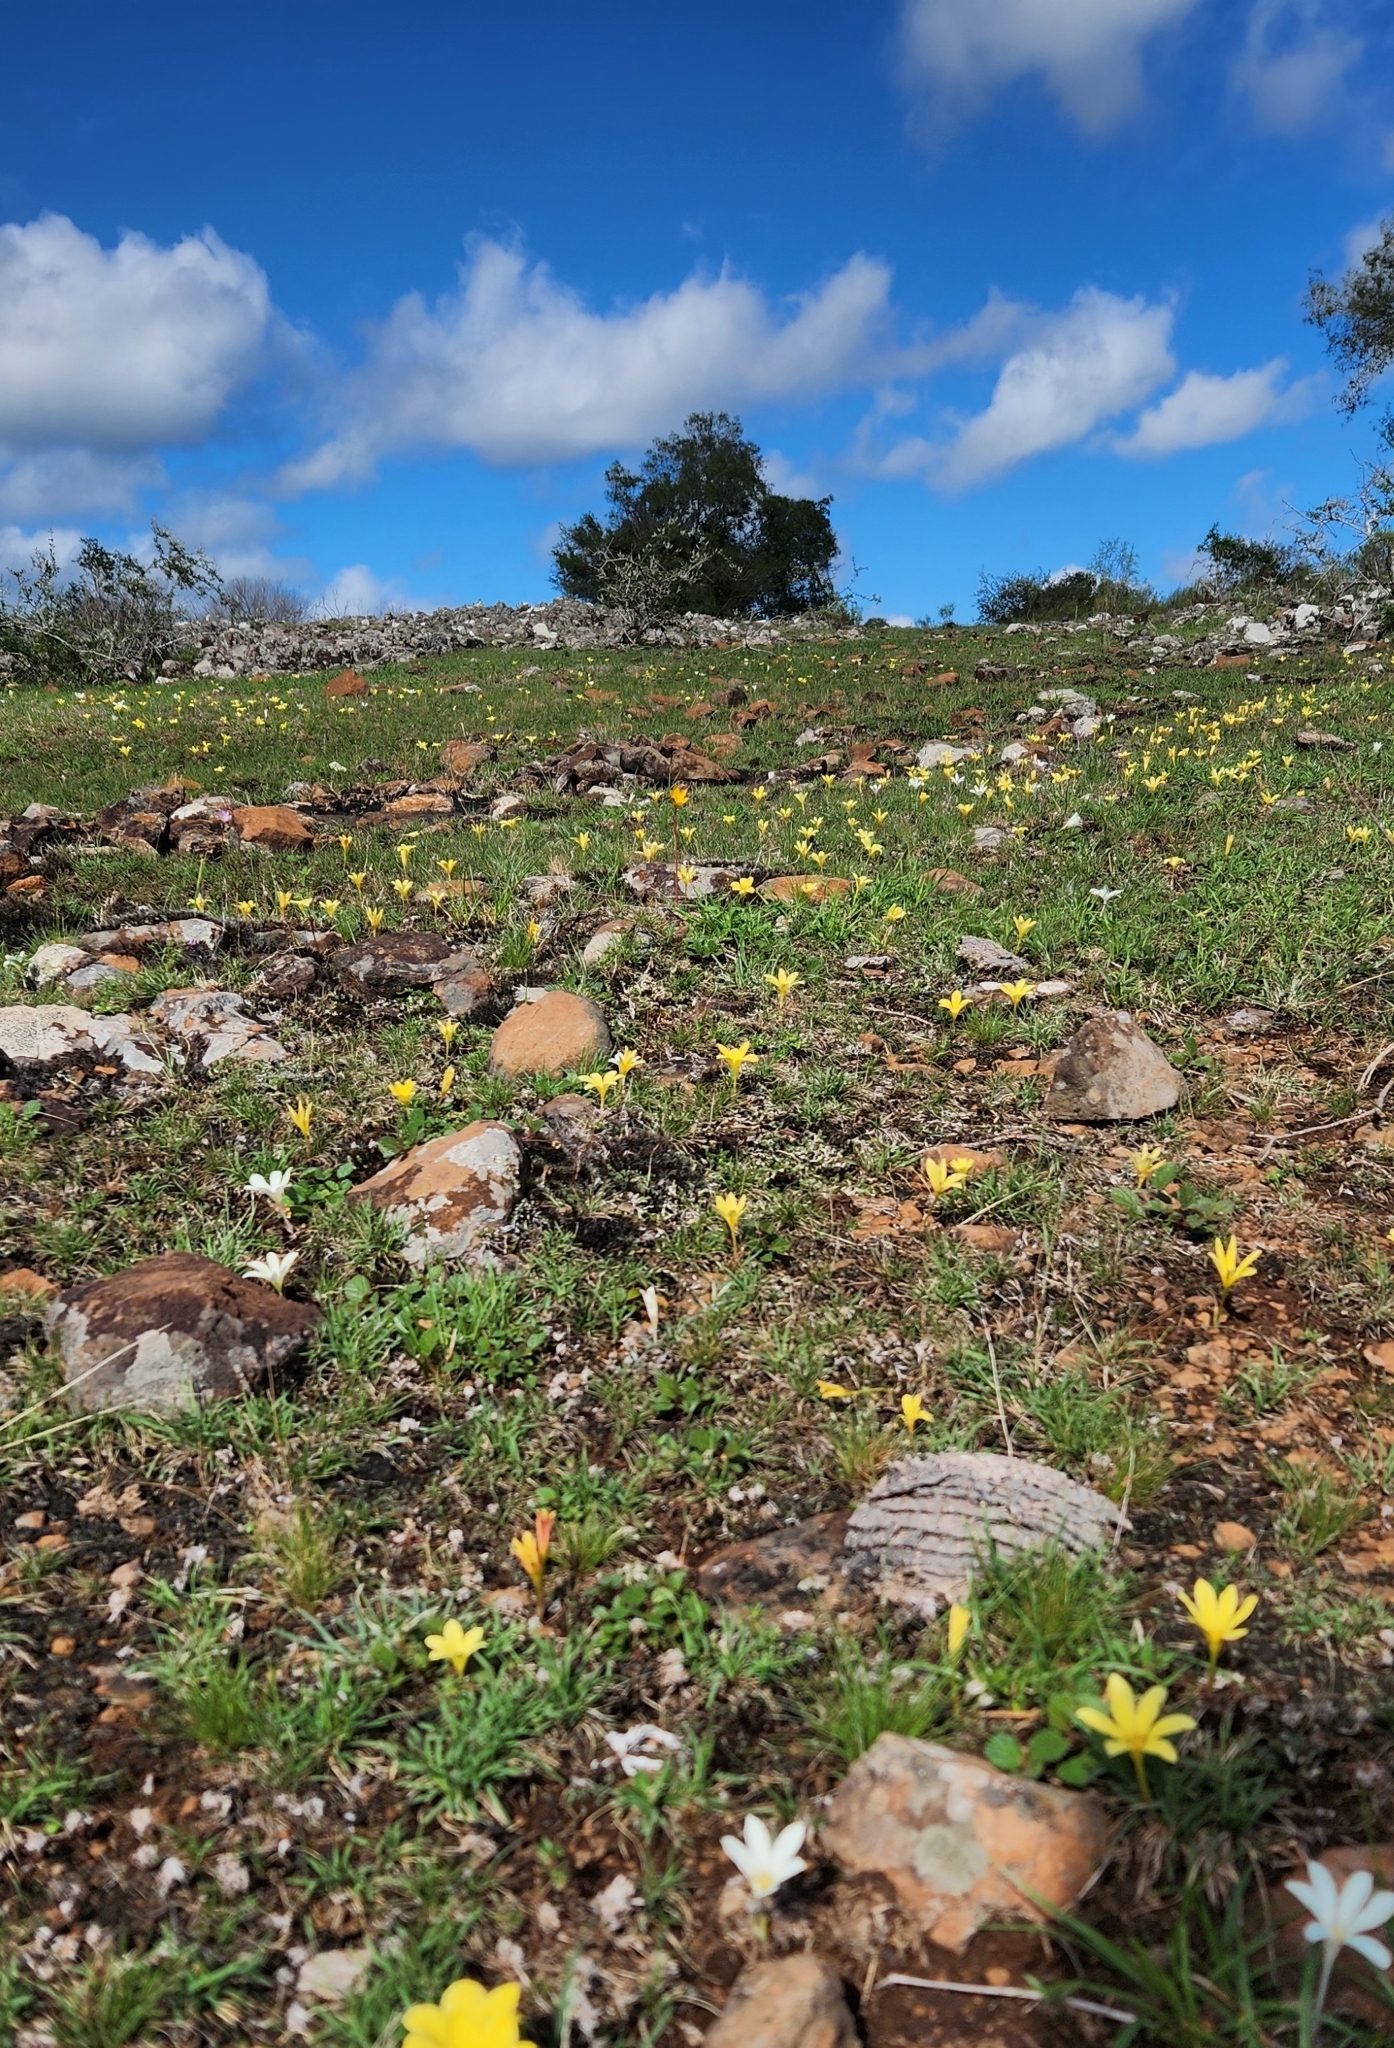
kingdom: Plantae
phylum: Tracheophyta
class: Liliopsida
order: Asparagales
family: Amaryllidaceae
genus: Zephyranthes
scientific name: Zephyranthes americana
